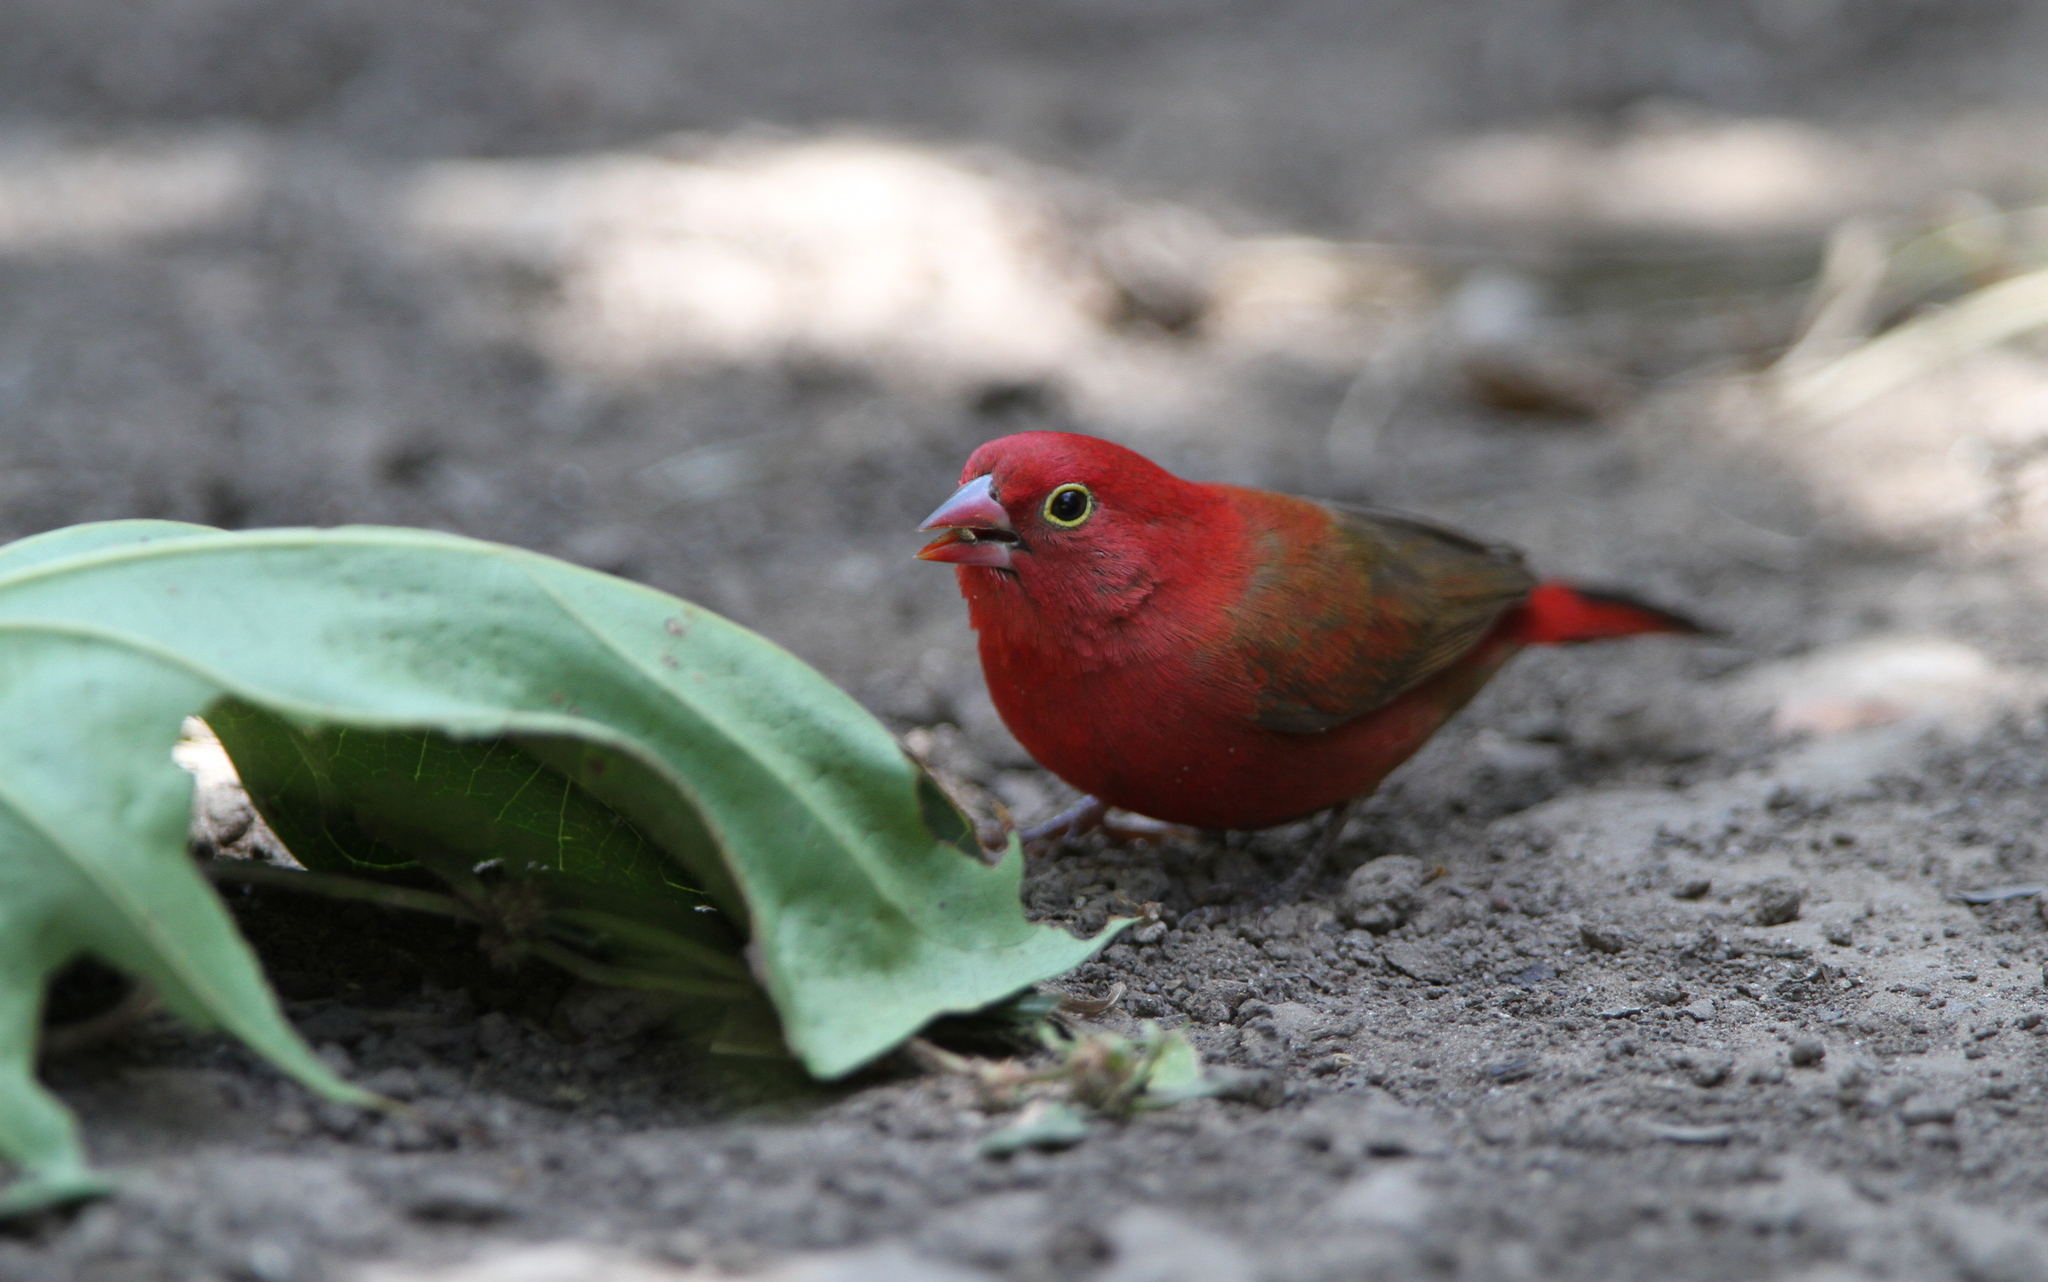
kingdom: Animalia
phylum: Chordata
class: Aves
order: Passeriformes
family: Estrildidae
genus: Lagonosticta
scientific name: Lagonosticta senegala
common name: Red-billed firefinch
